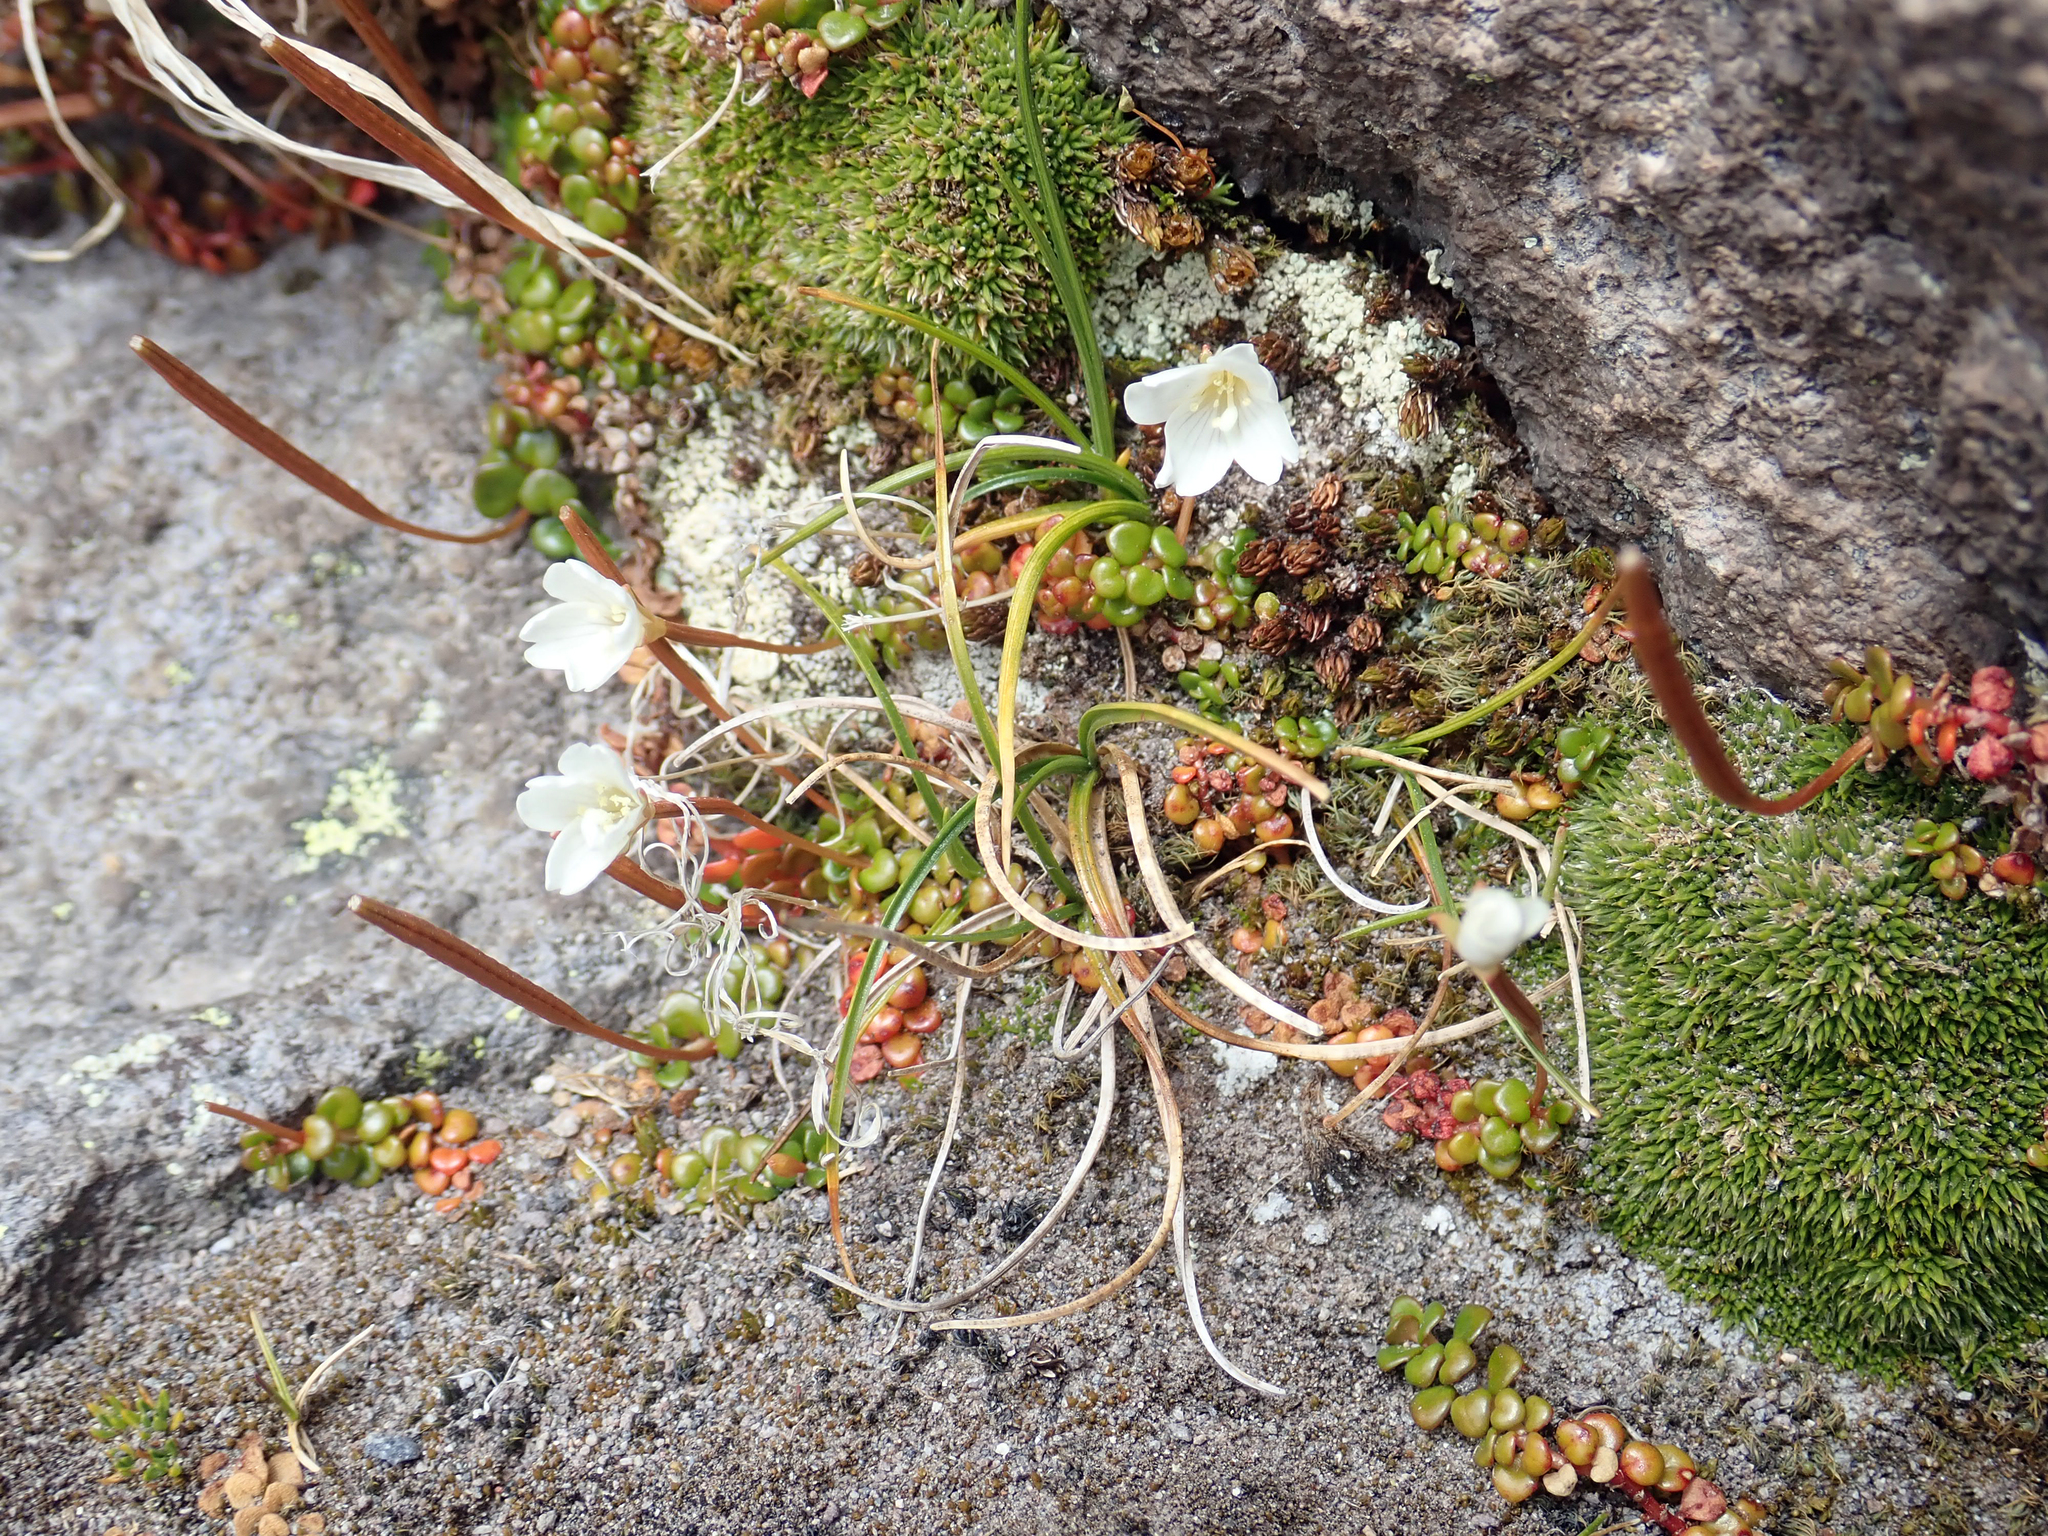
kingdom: Plantae
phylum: Tracheophyta
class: Magnoliopsida
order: Myrtales
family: Onagraceae
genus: Epilobium
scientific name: Epilobium pernitens
